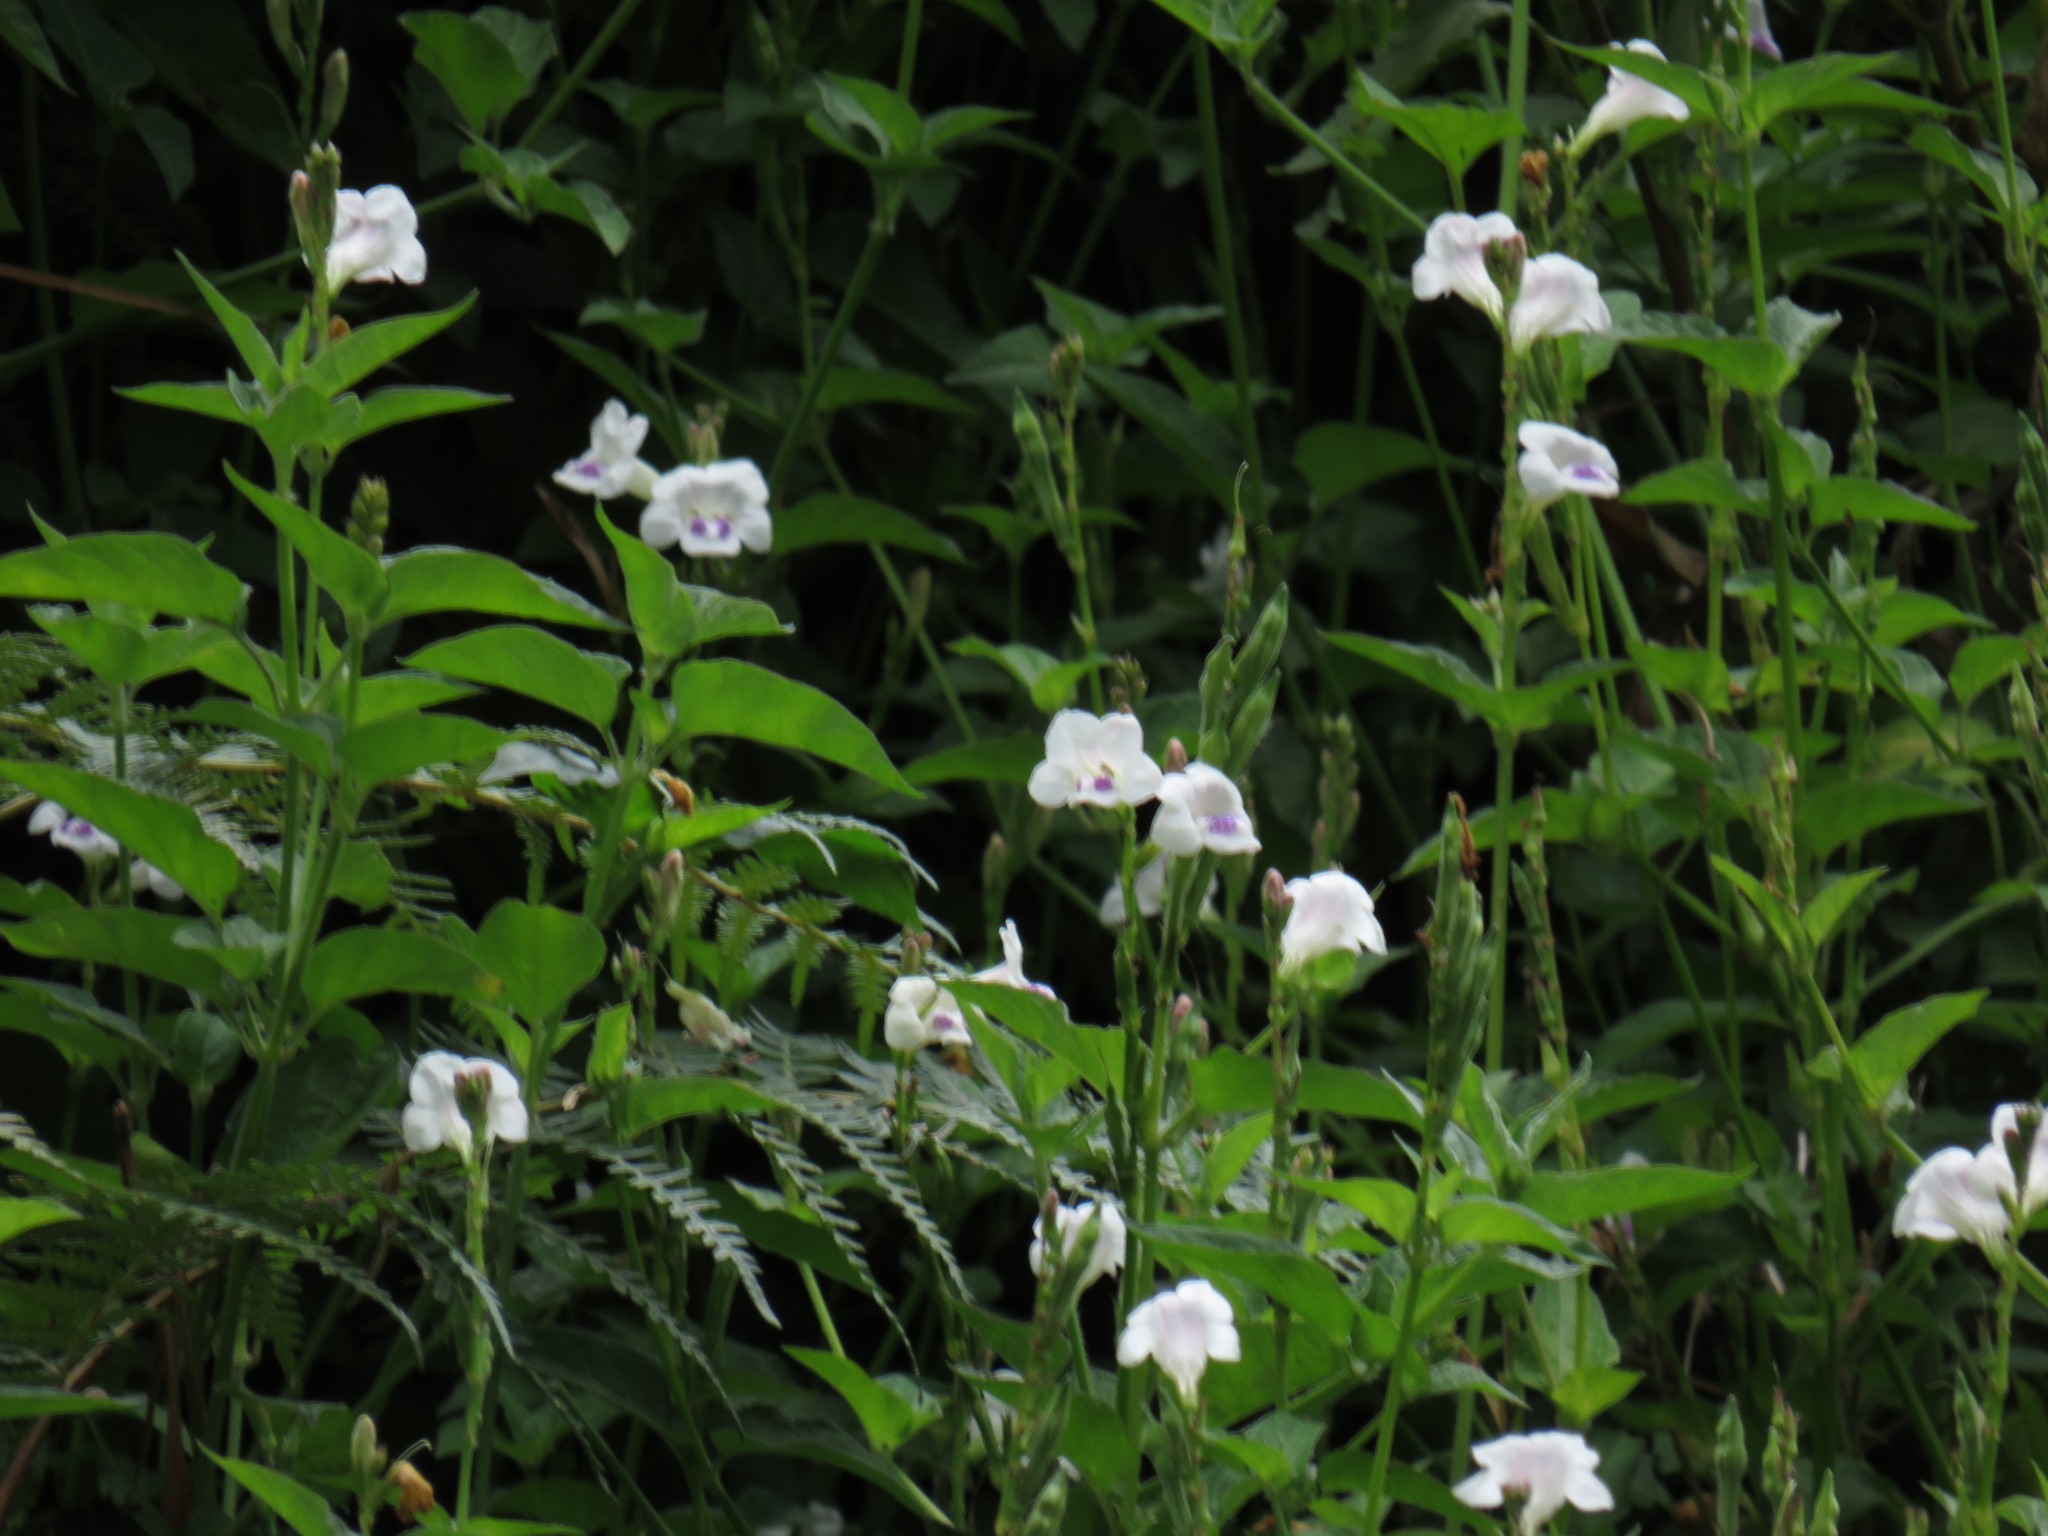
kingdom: Plantae
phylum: Tracheophyta
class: Magnoliopsida
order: Lamiales
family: Acanthaceae
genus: Asystasia
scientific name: Asystasia intrusa
